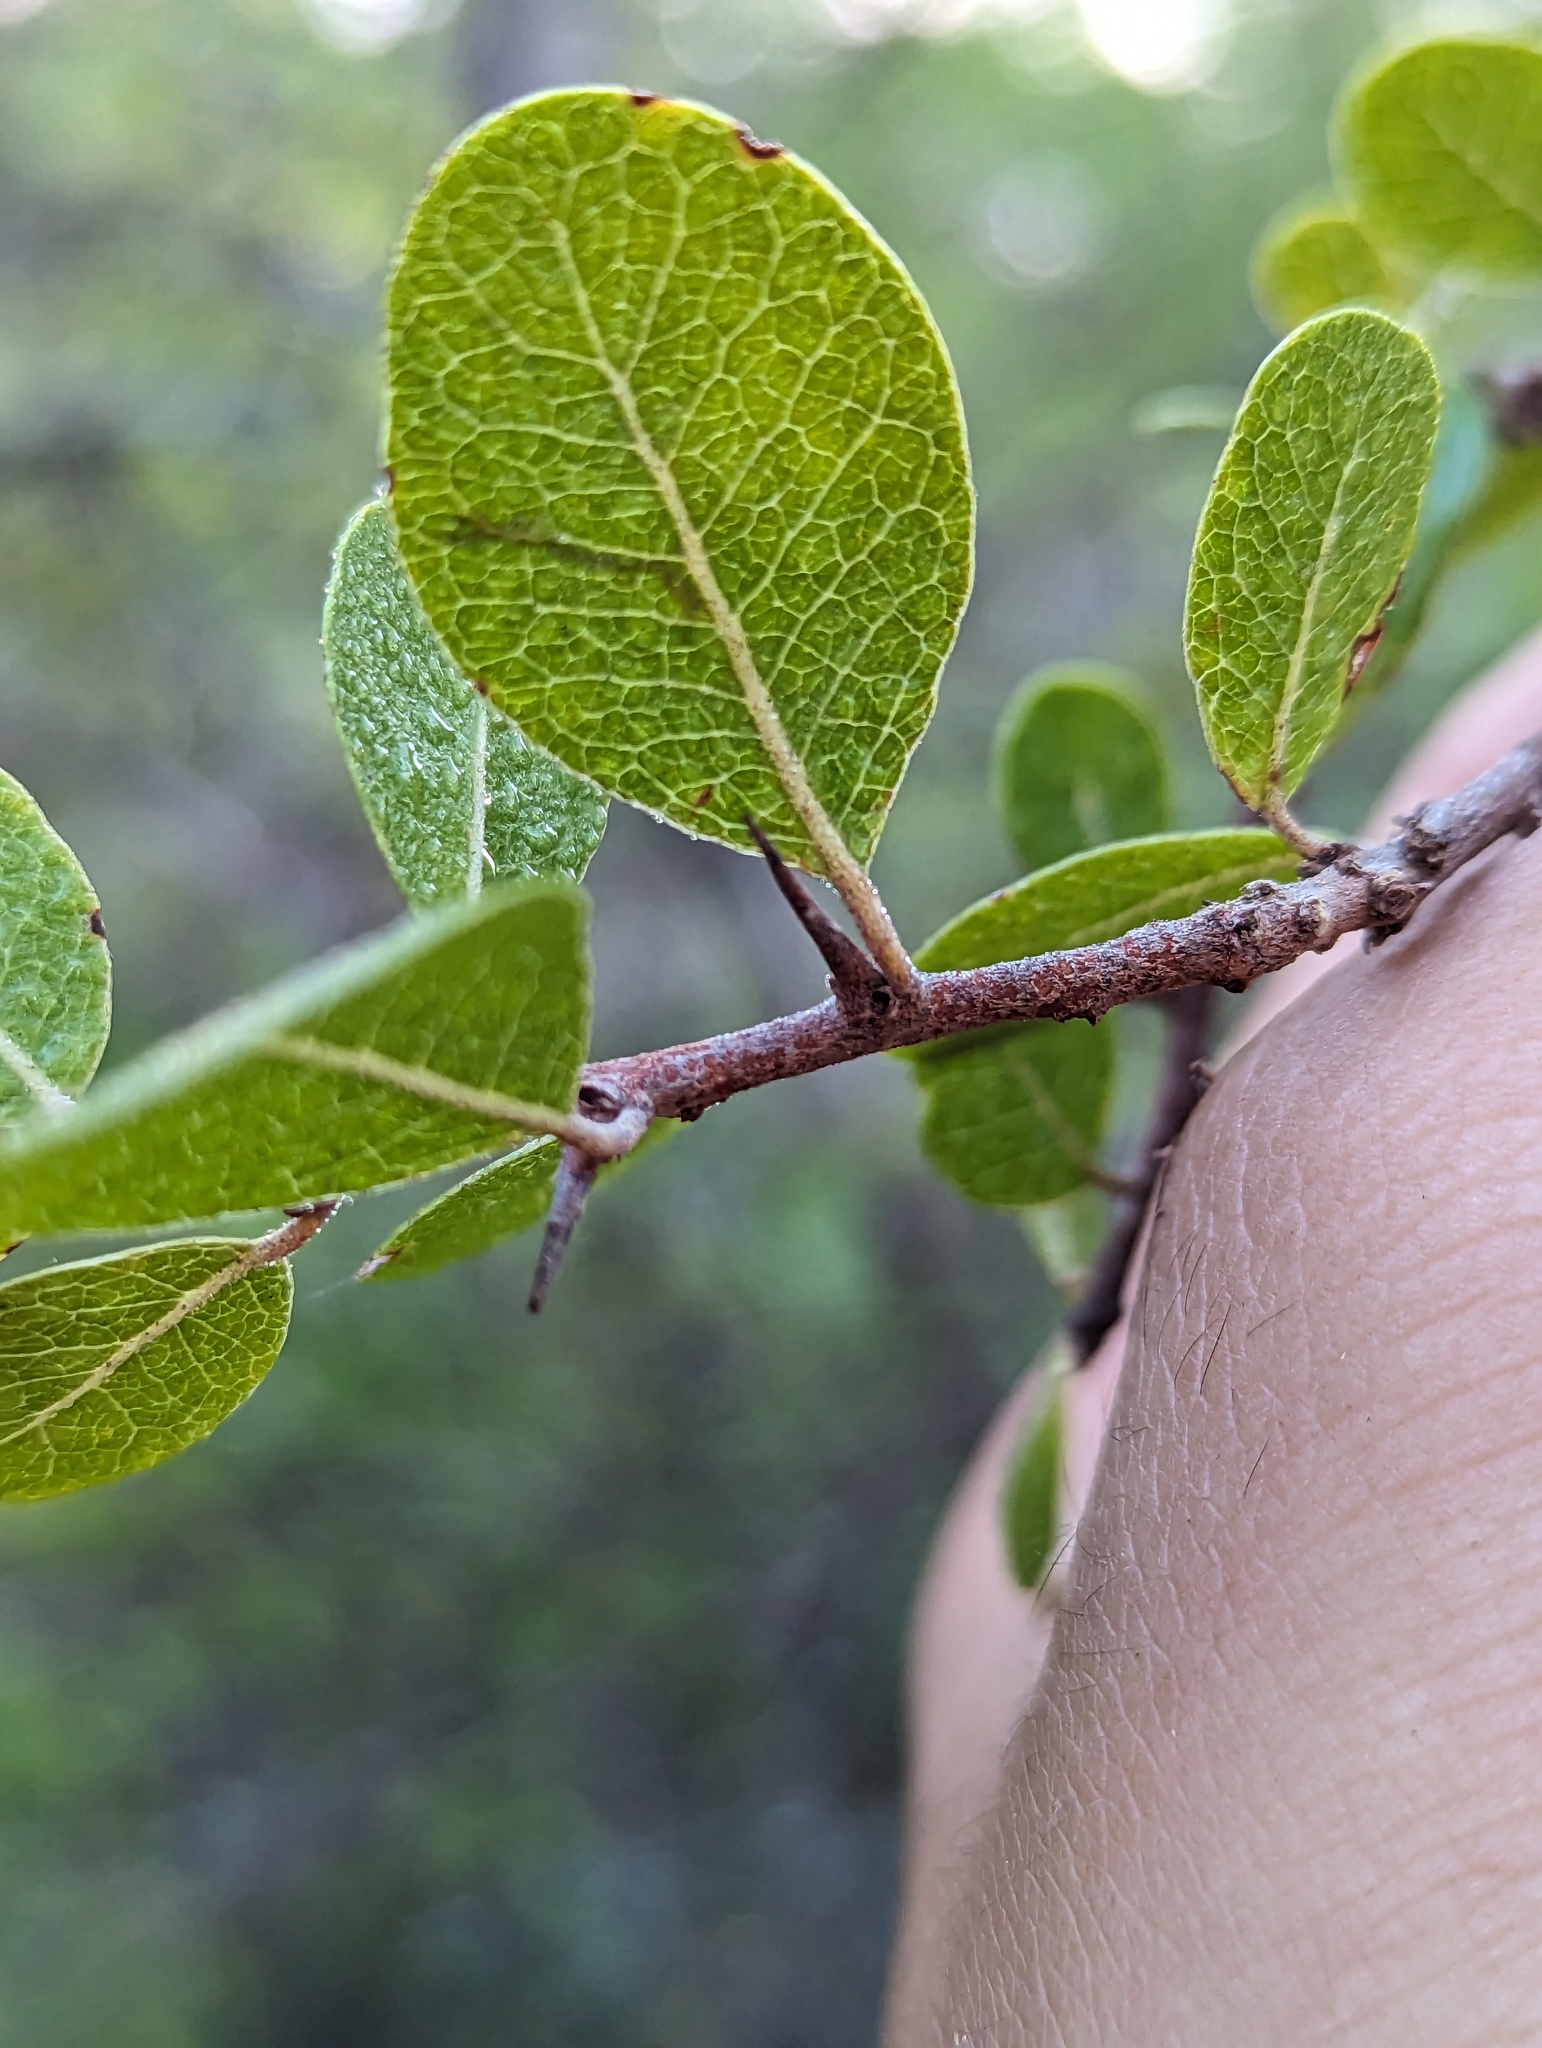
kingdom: Plantae
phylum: Tracheophyta
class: Magnoliopsida
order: Ericales
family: Sapotaceae
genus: Sideroxylon
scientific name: Sideroxylon peninsulare
